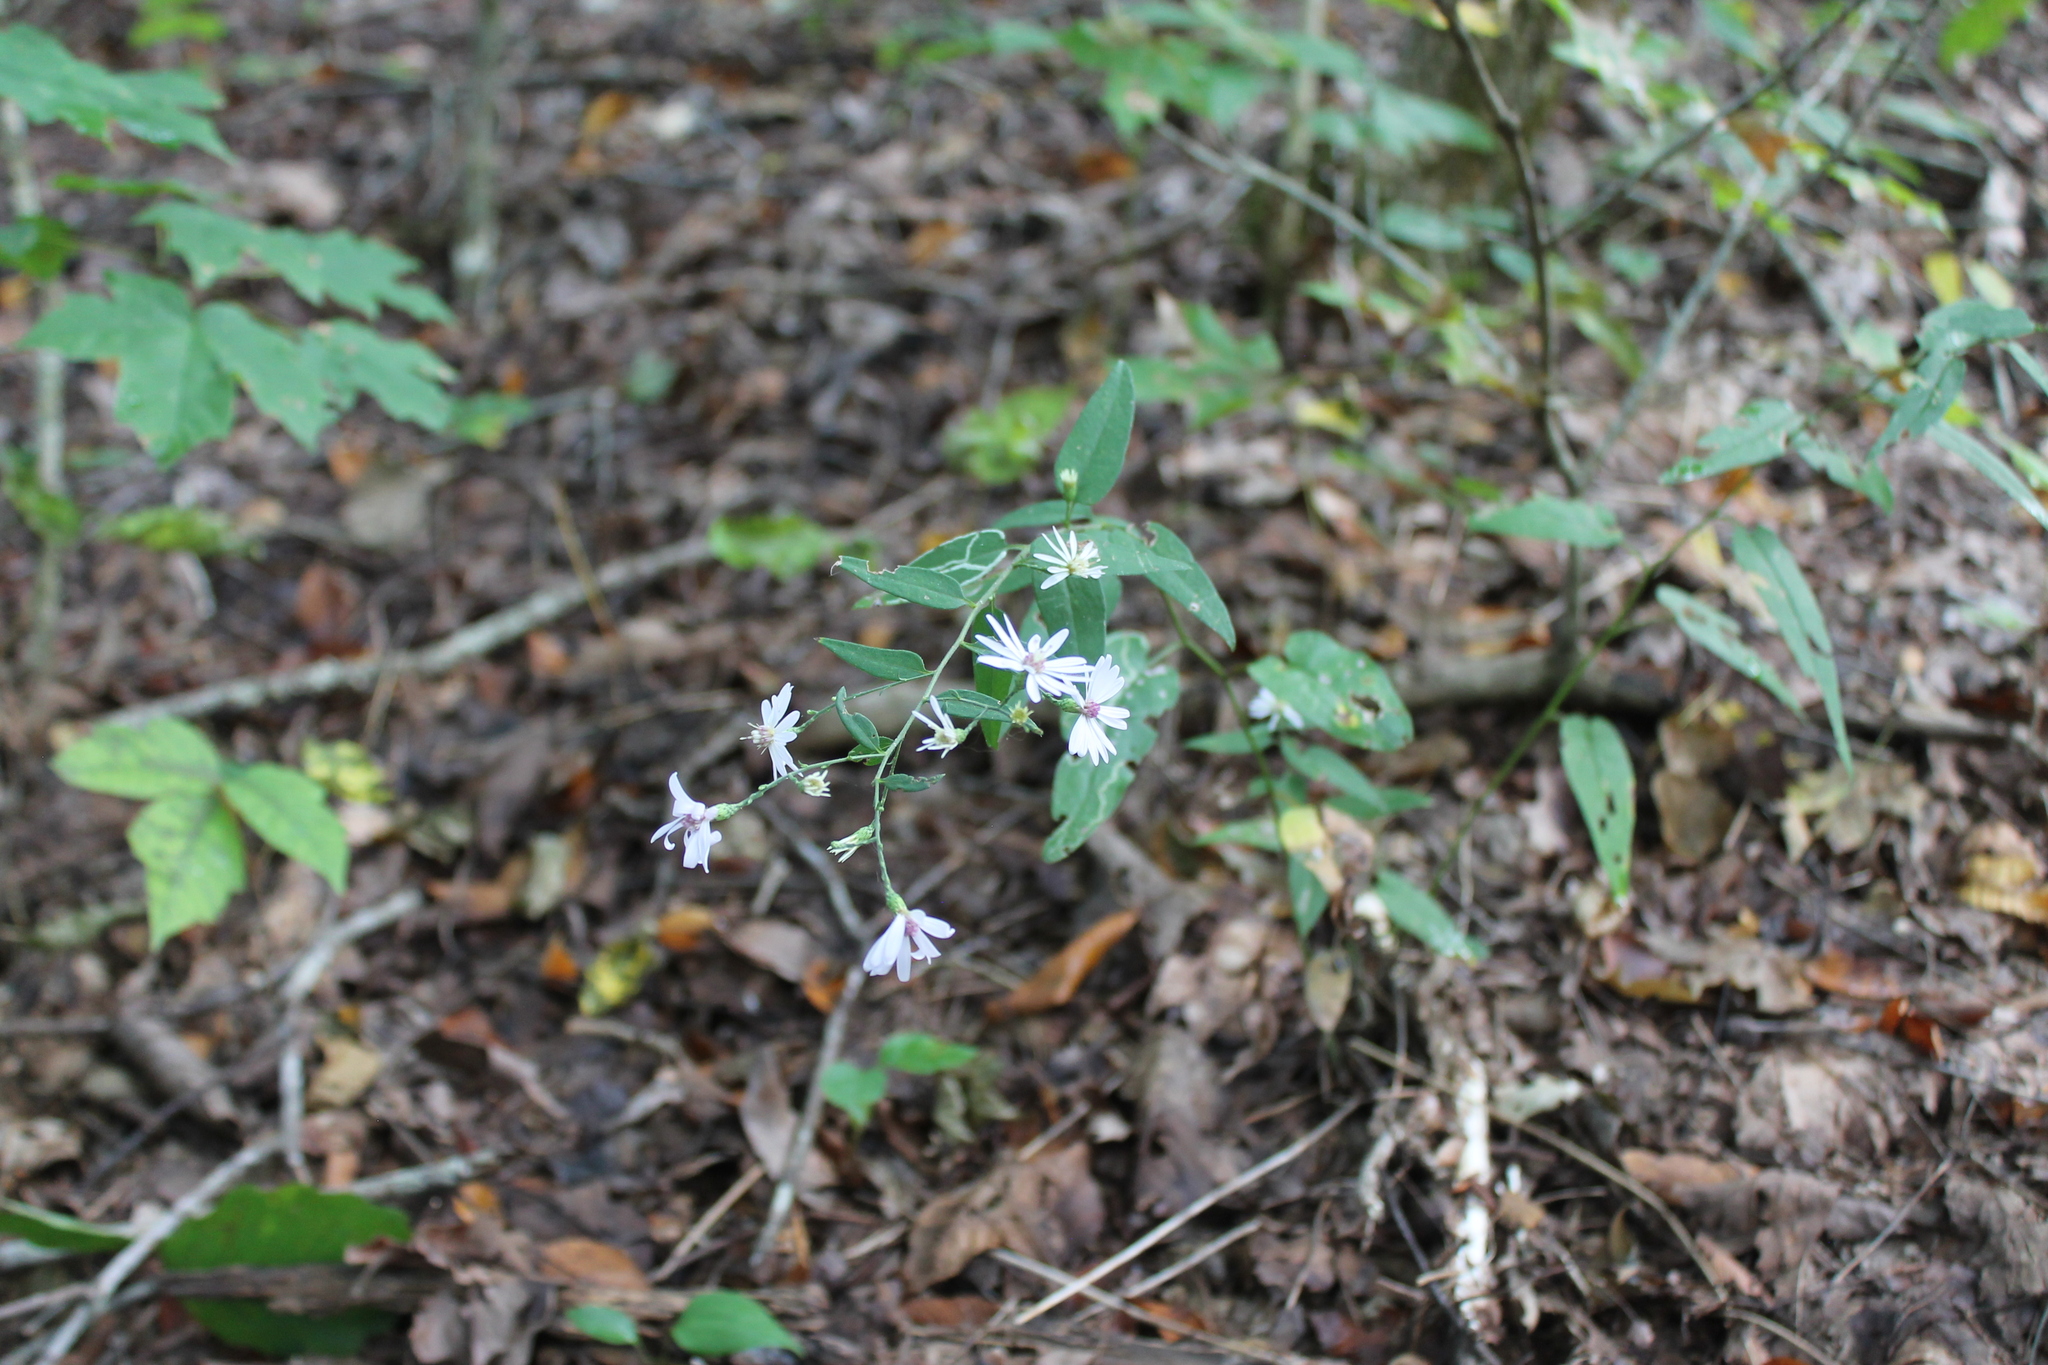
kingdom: Plantae
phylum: Tracheophyta
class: Magnoliopsida
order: Asterales
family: Asteraceae
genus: Symphyotrichum
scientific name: Symphyotrichum lateriflorum
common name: Calico aster
